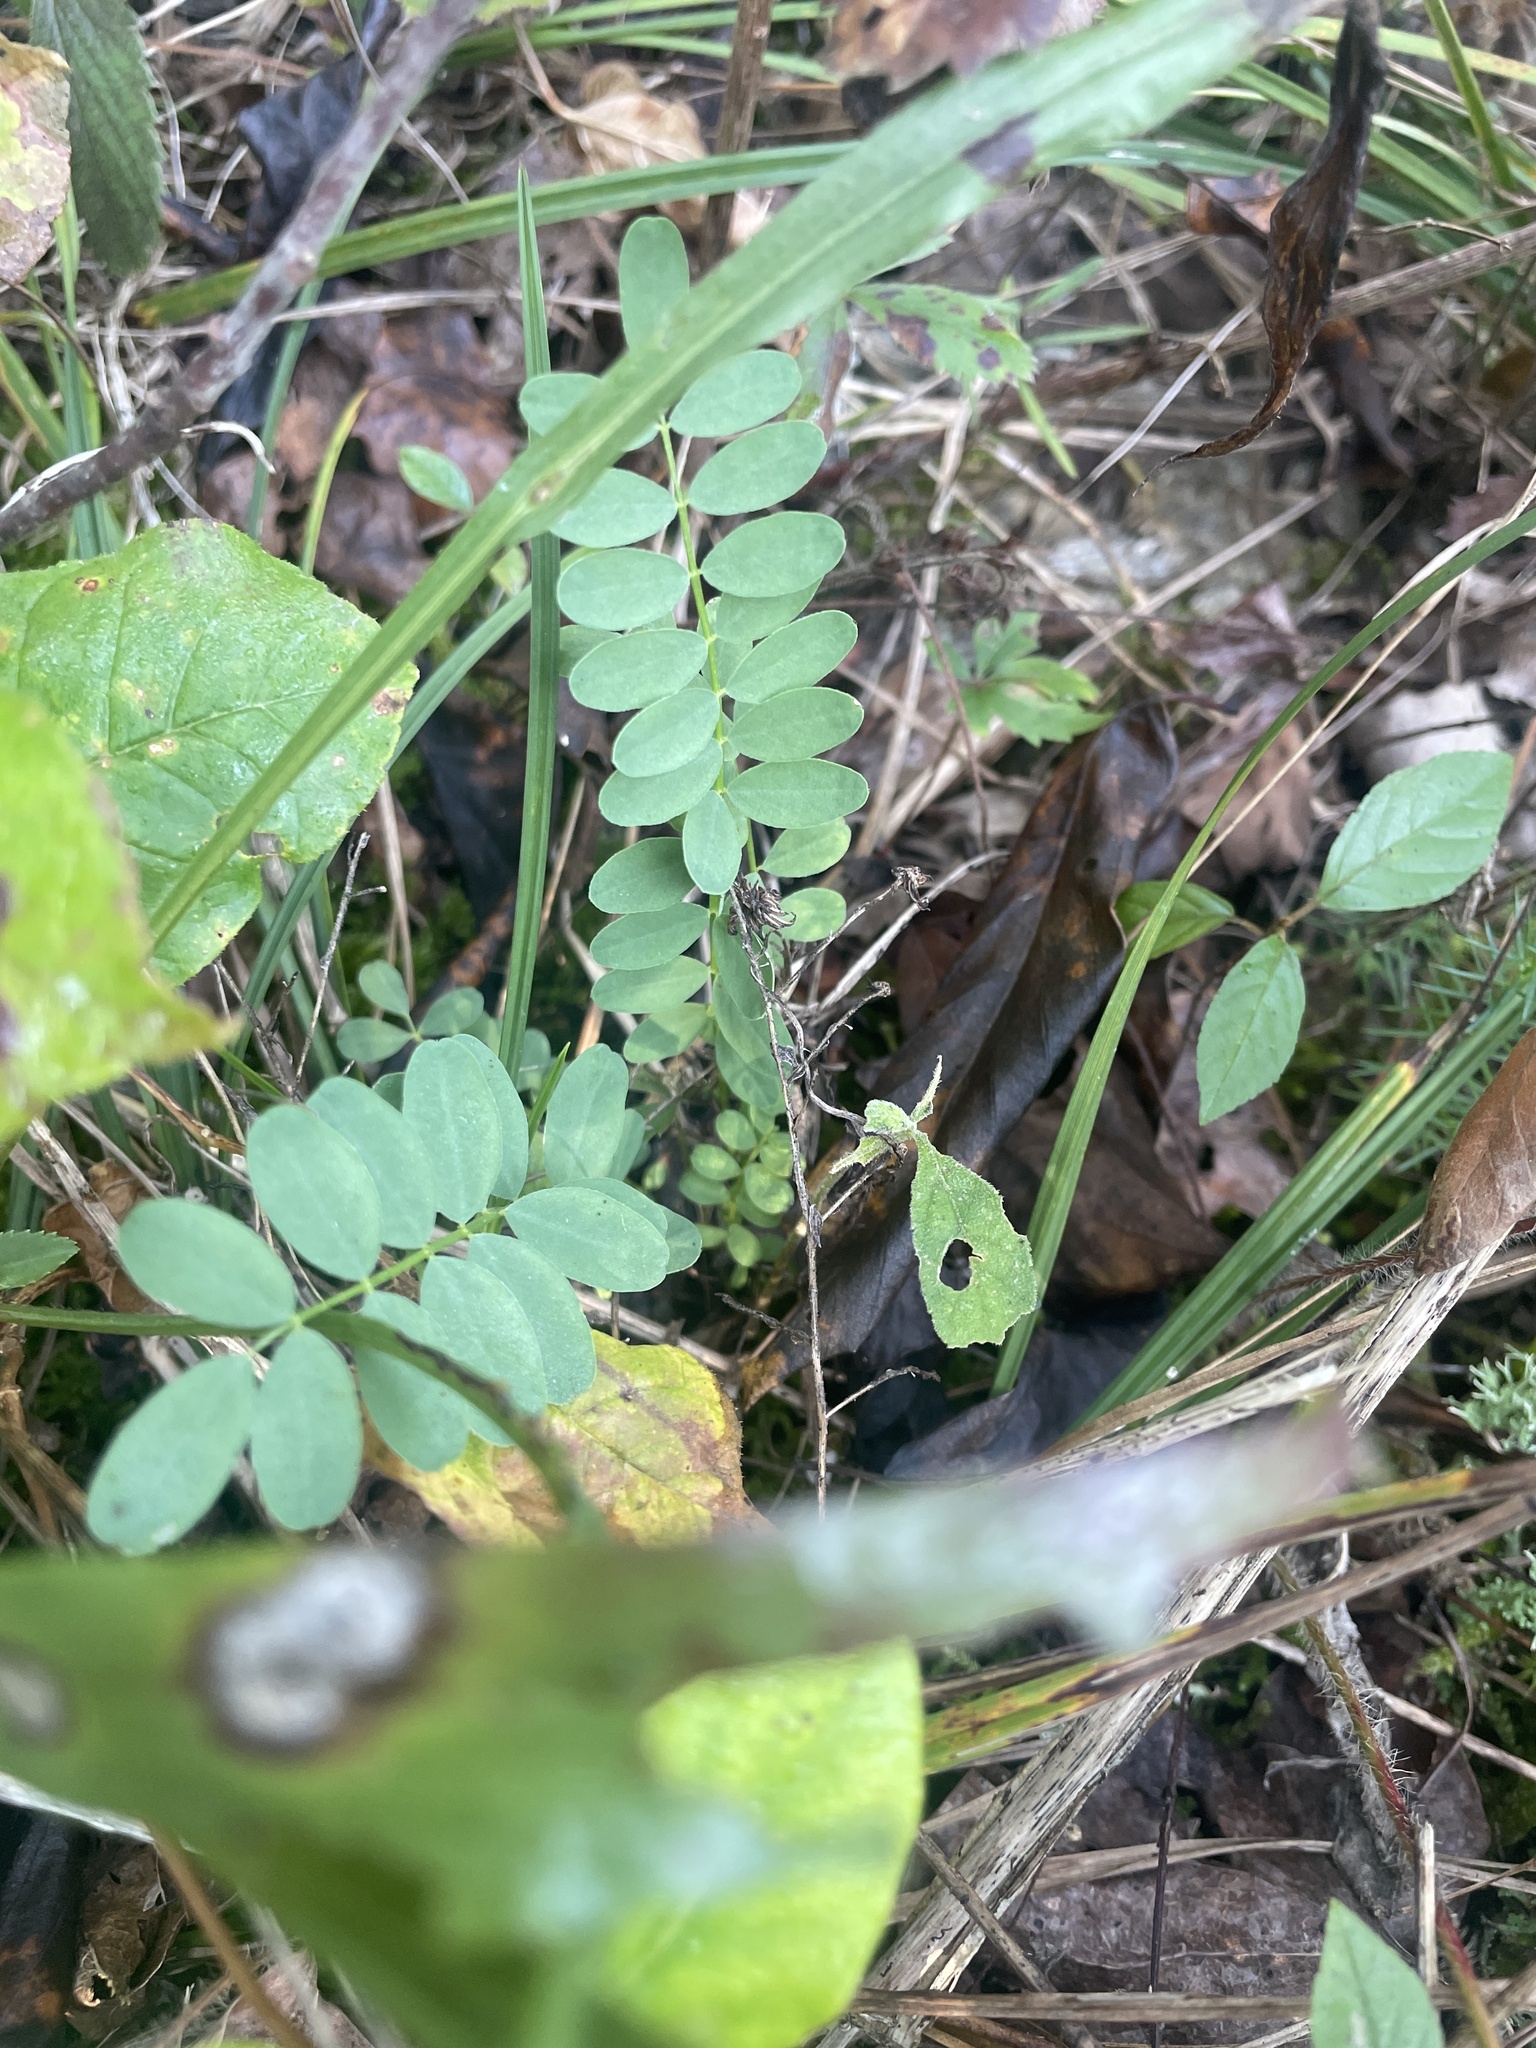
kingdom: Plantae
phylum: Tracheophyta
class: Magnoliopsida
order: Fabales
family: Fabaceae
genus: Astragalus
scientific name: Astragalus bibullatus
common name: Pyne's ground-plum
